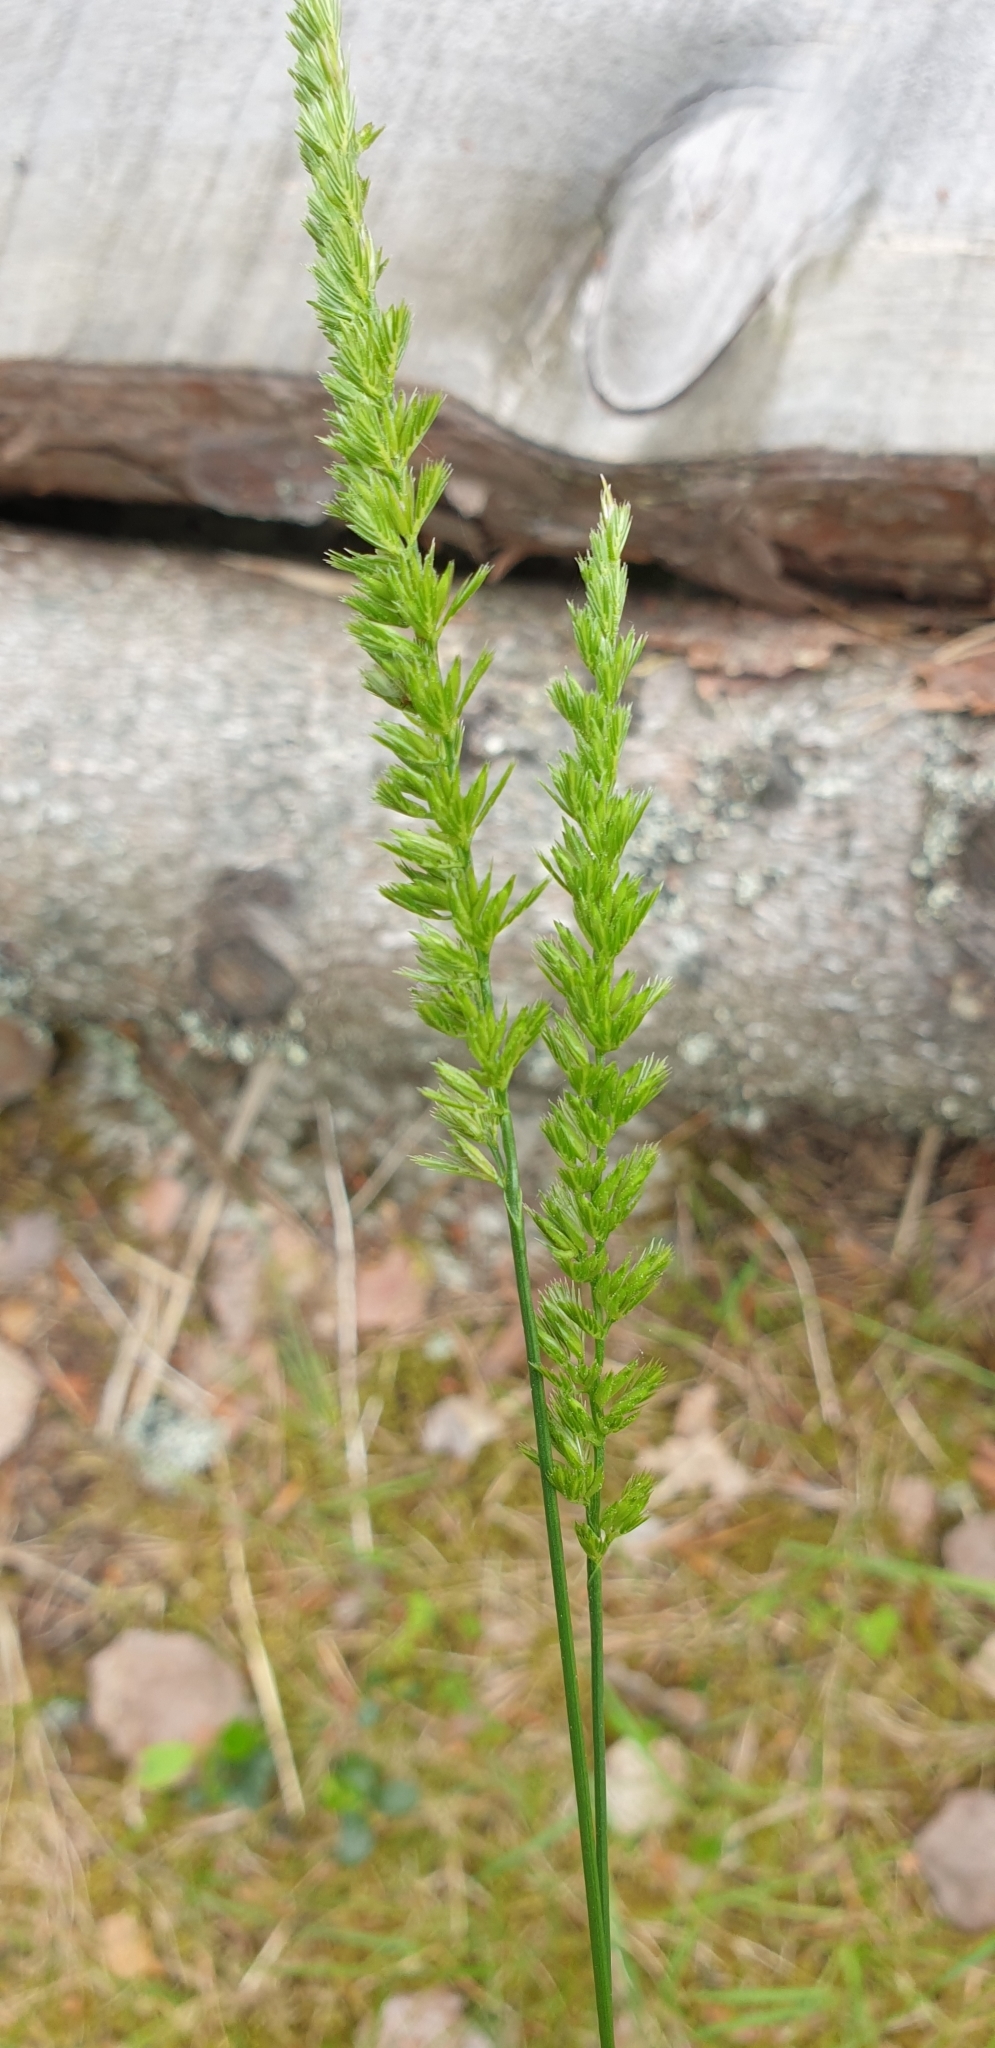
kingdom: Plantae
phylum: Tracheophyta
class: Liliopsida
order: Poales
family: Poaceae
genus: Cynosurus
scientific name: Cynosurus cristatus
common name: Crested dog's-tail
